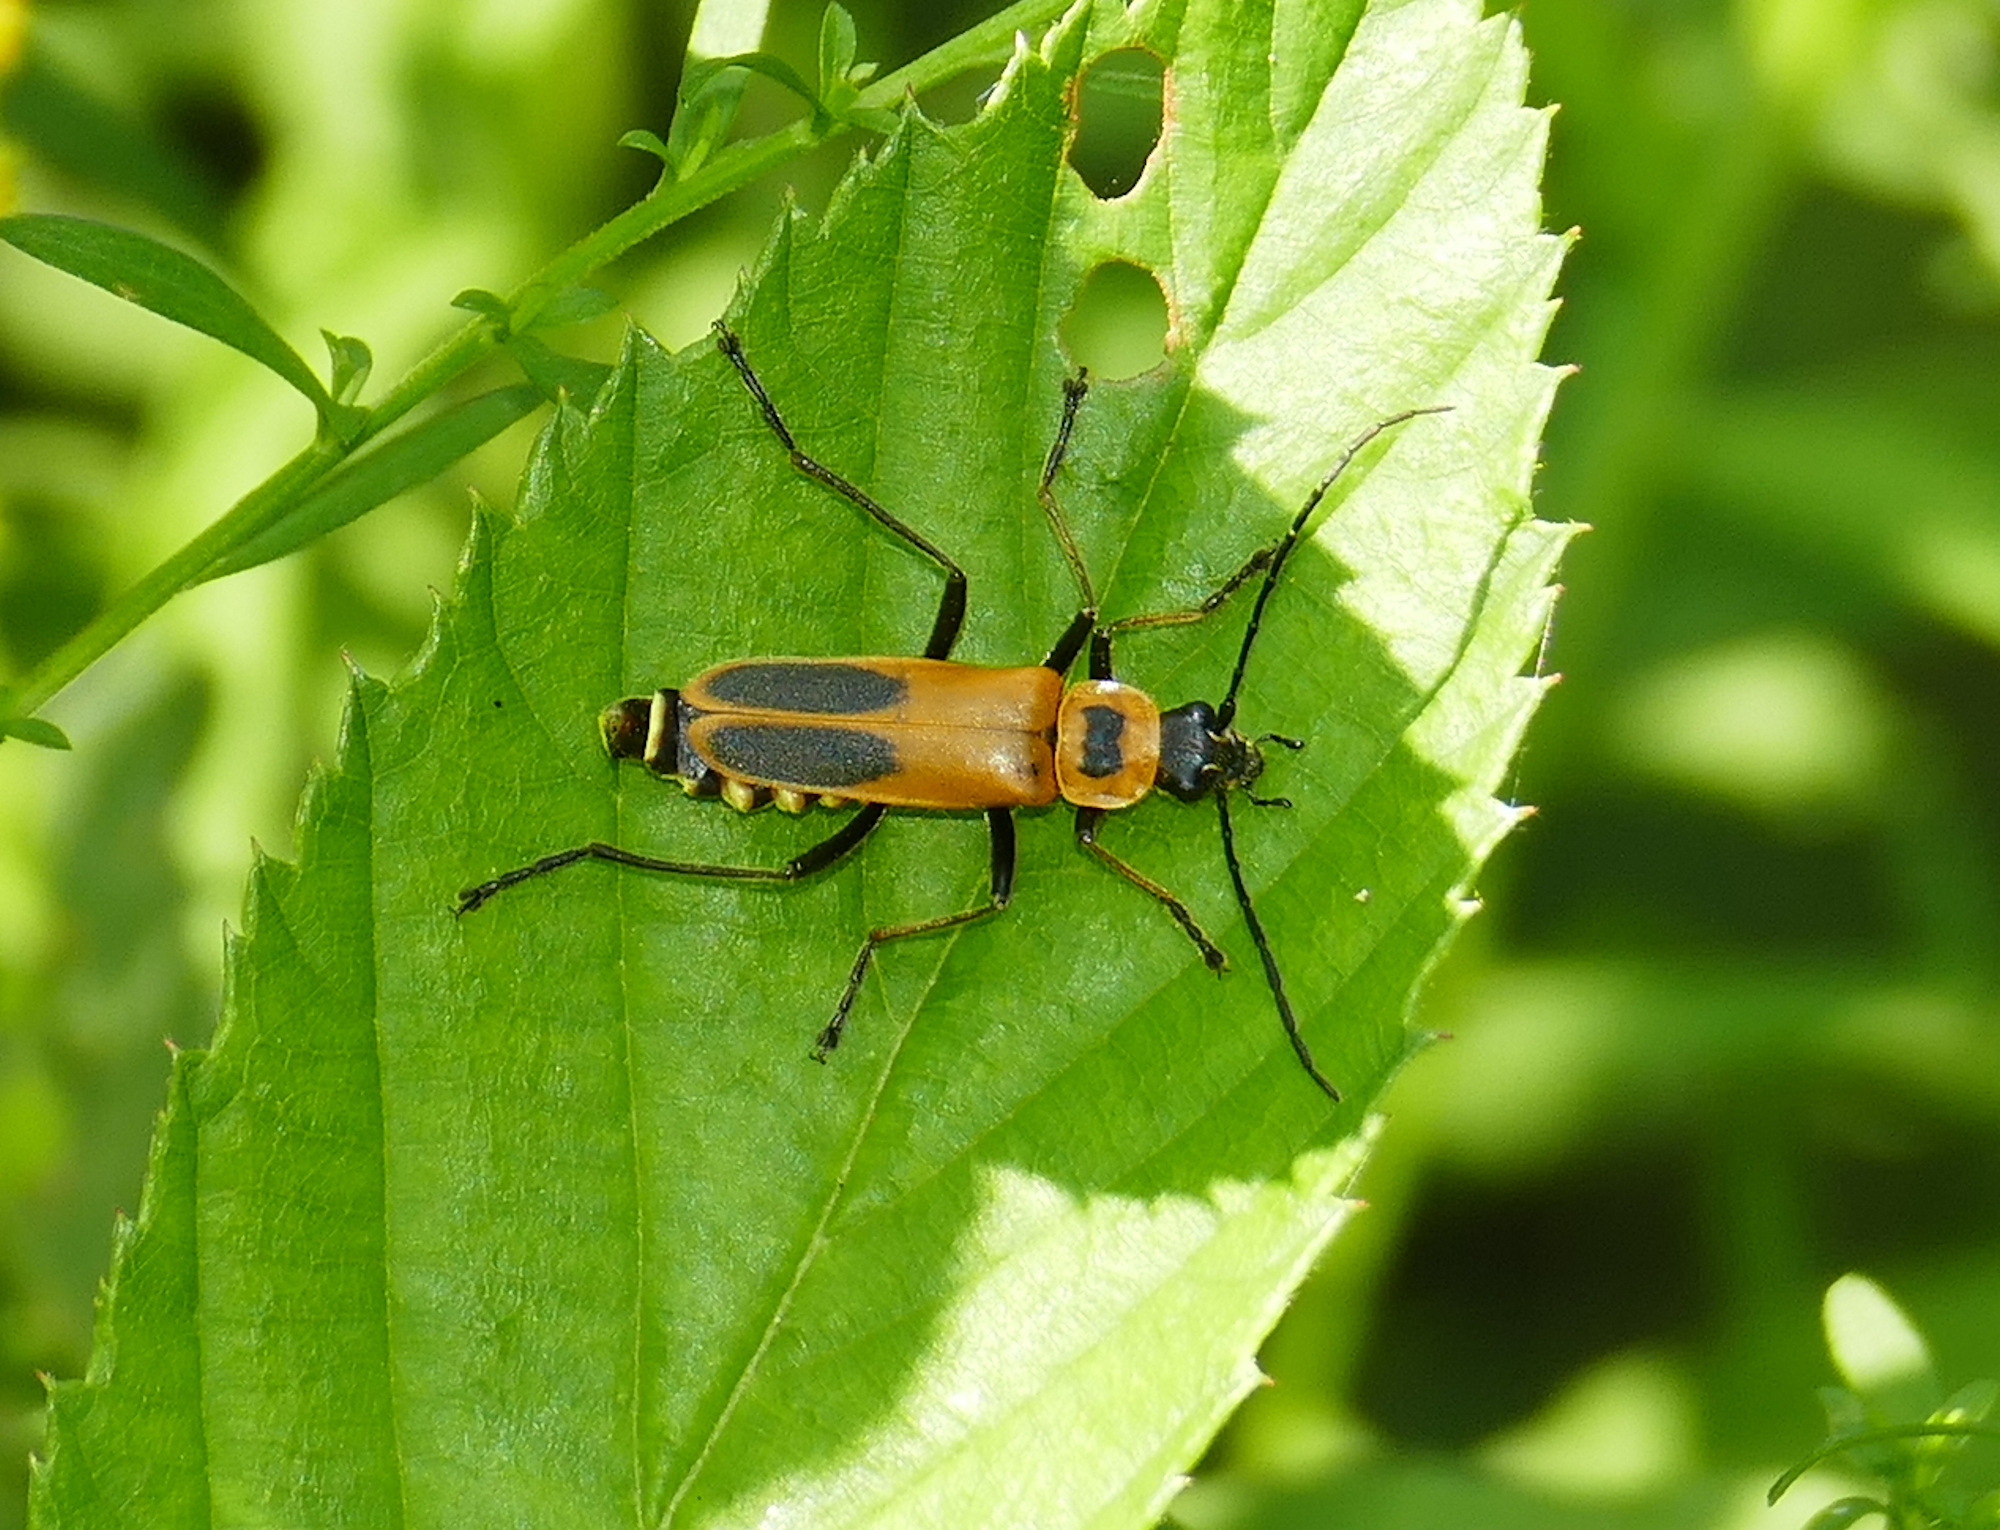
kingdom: Animalia
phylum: Arthropoda
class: Insecta
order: Coleoptera
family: Cantharidae
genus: Chauliognathus
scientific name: Chauliognathus pensylvanicus
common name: Goldenrod soldier beetle
